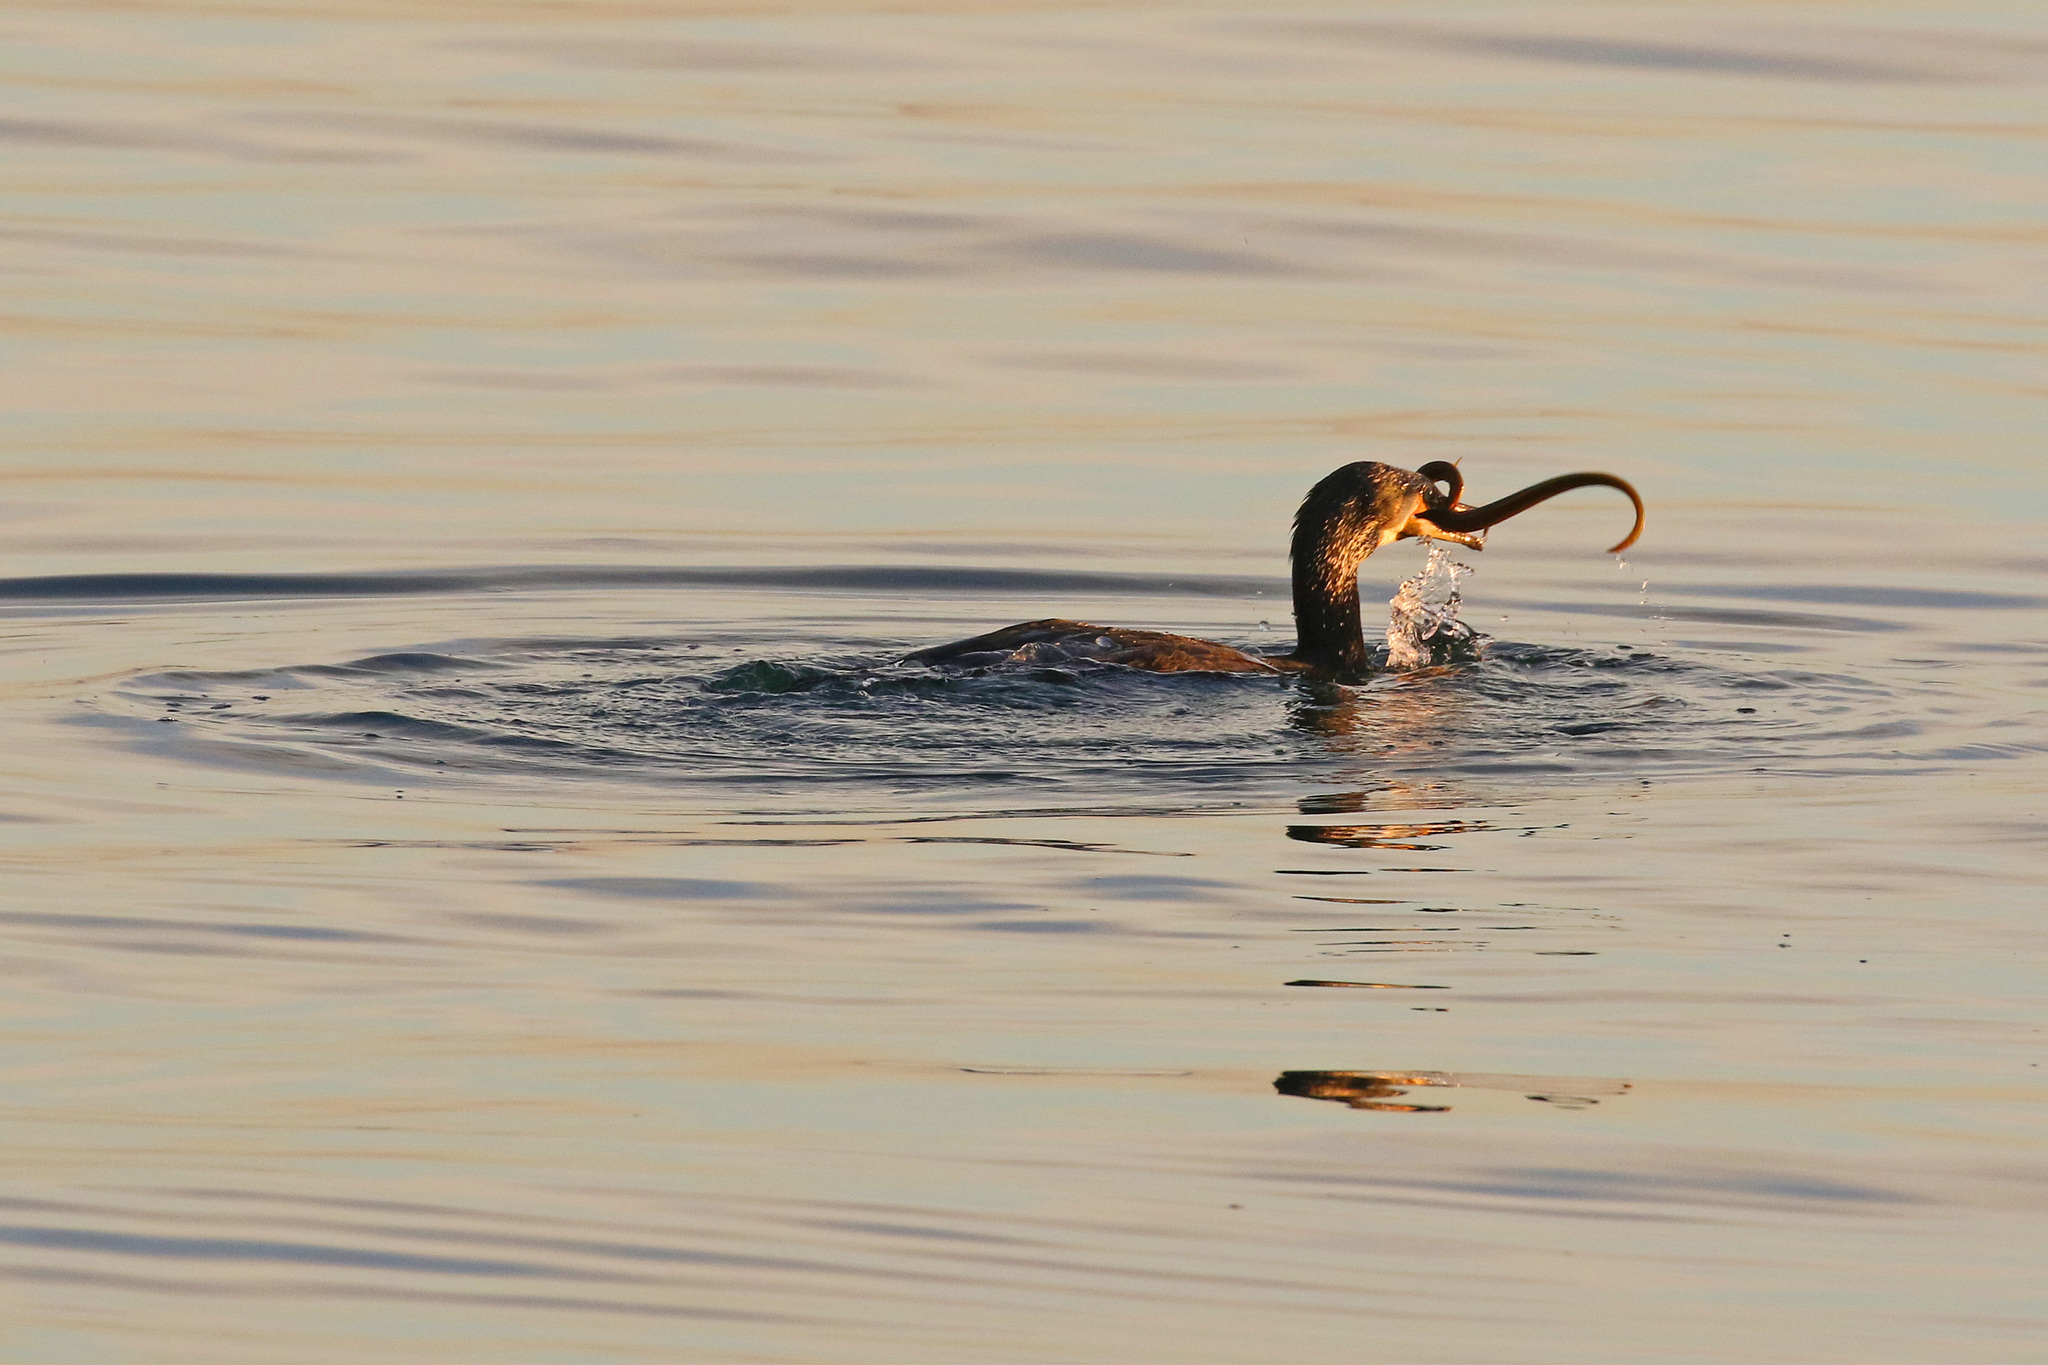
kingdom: Animalia
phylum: Chordata
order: Anguilliformes
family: Anguillidae
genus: Anguilla
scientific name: Anguilla anguilla
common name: European eel
